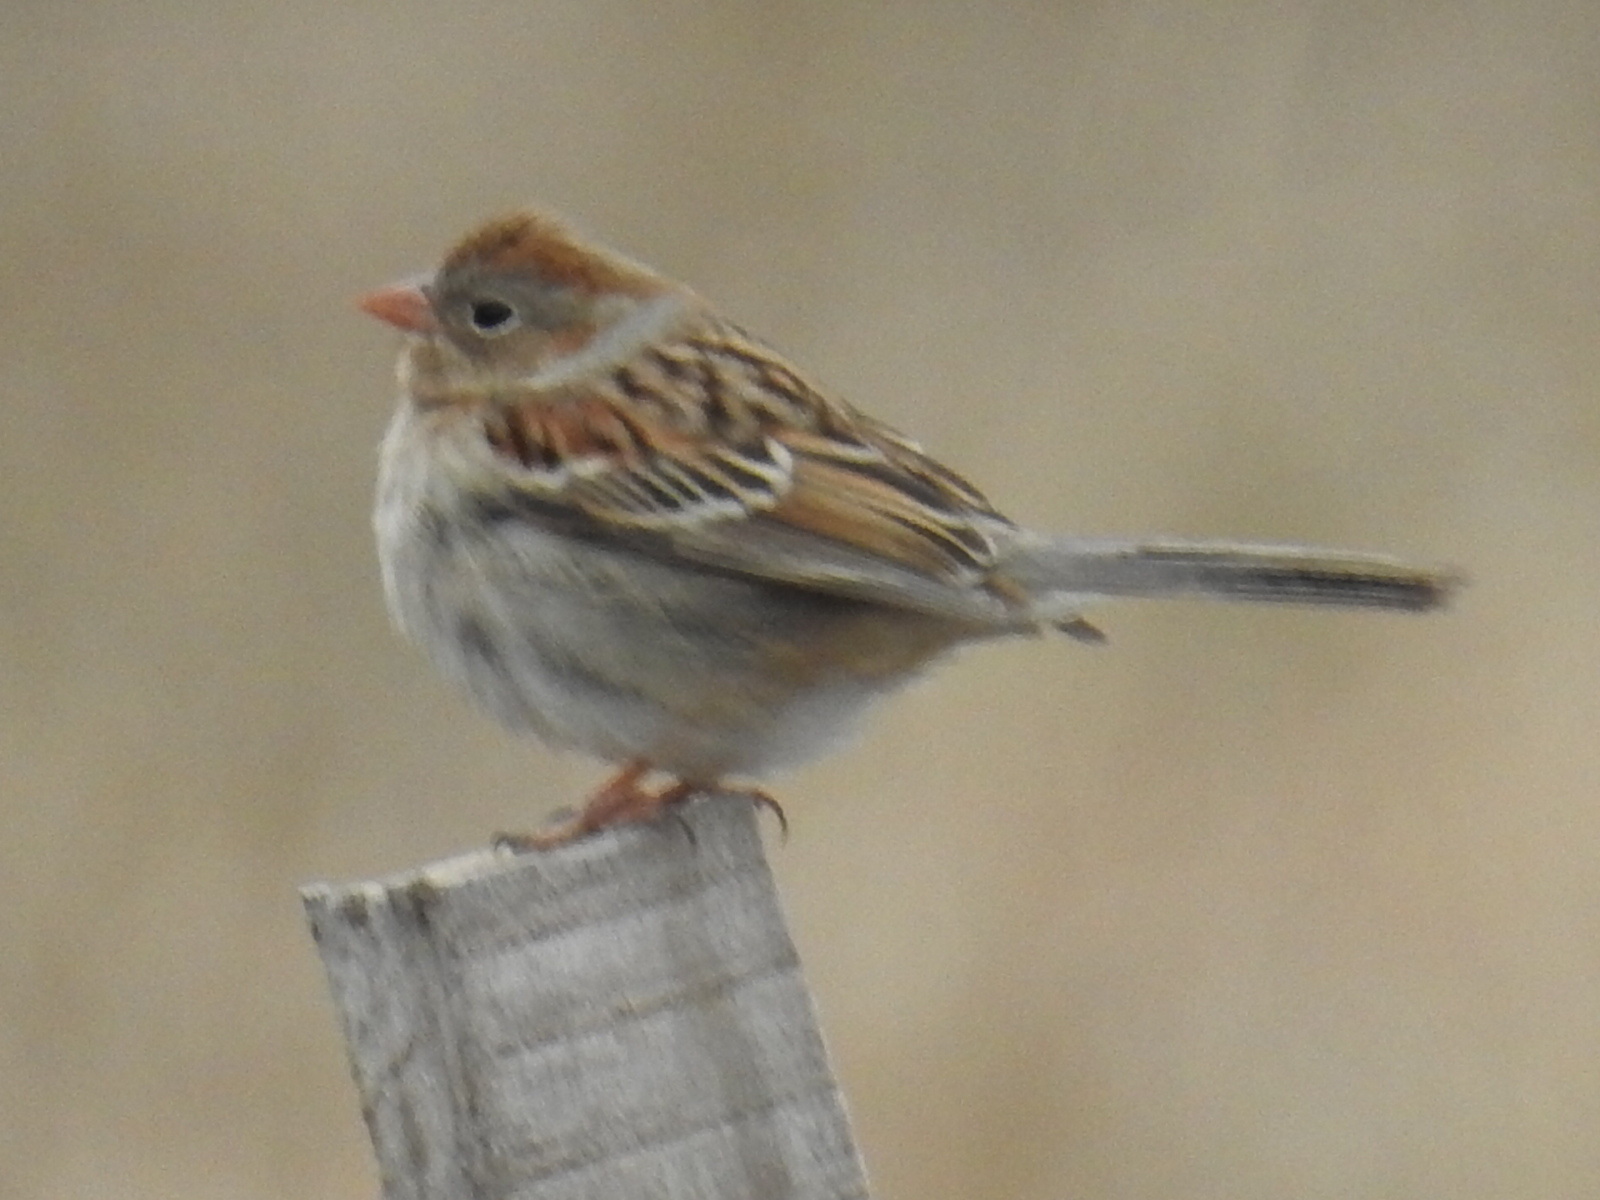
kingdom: Animalia
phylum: Chordata
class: Aves
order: Passeriformes
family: Passerellidae
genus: Spizella
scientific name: Spizella pusilla
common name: Field sparrow
